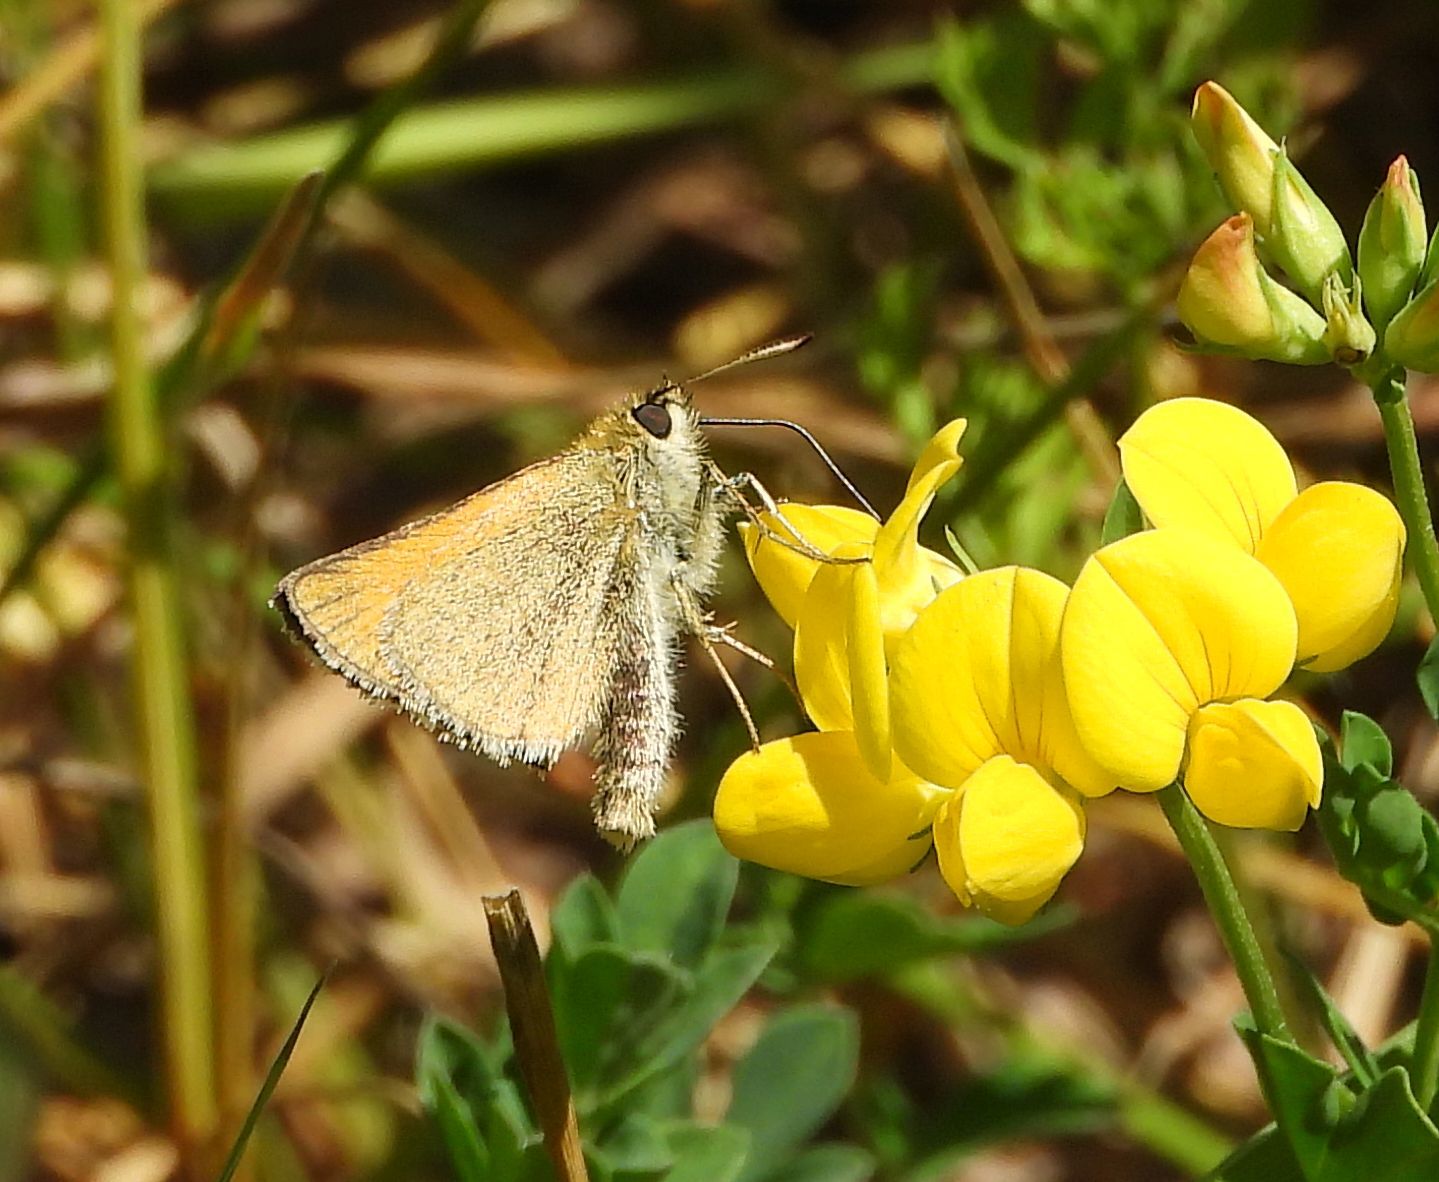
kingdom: Animalia
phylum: Arthropoda
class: Insecta
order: Lepidoptera
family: Hesperiidae
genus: Thymelicus
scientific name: Thymelicus lineola
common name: Essex skipper
